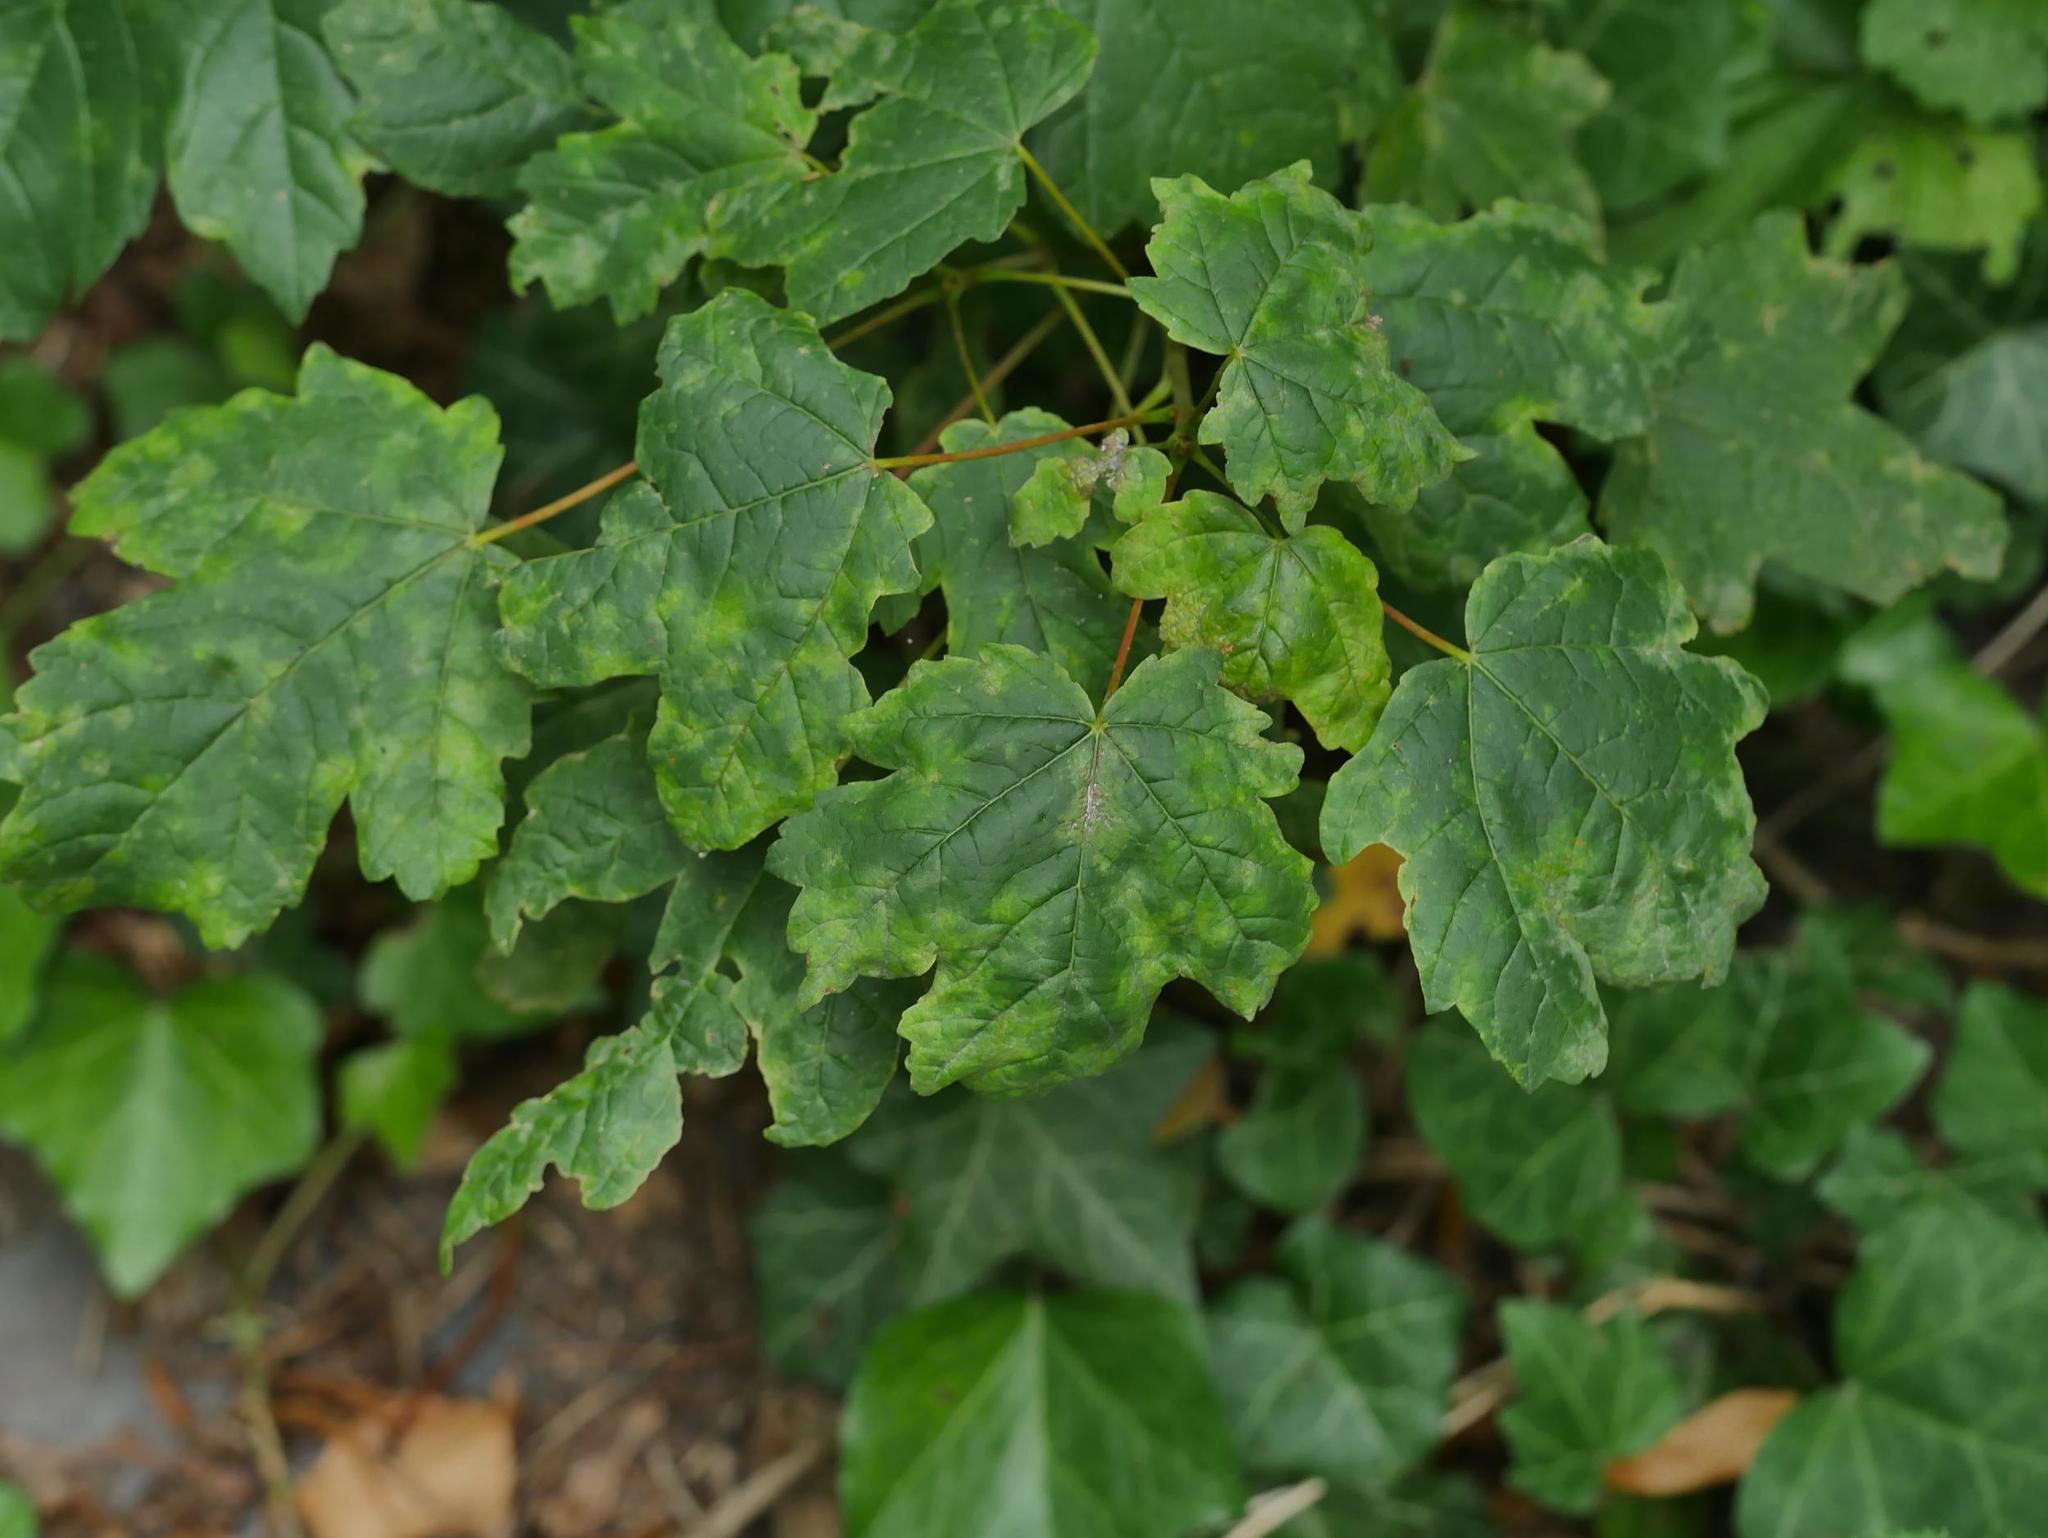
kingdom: Plantae
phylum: Tracheophyta
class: Magnoliopsida
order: Sapindales
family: Sapindaceae
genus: Acer
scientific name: Acer pseudoplatanus
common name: Sycamore
